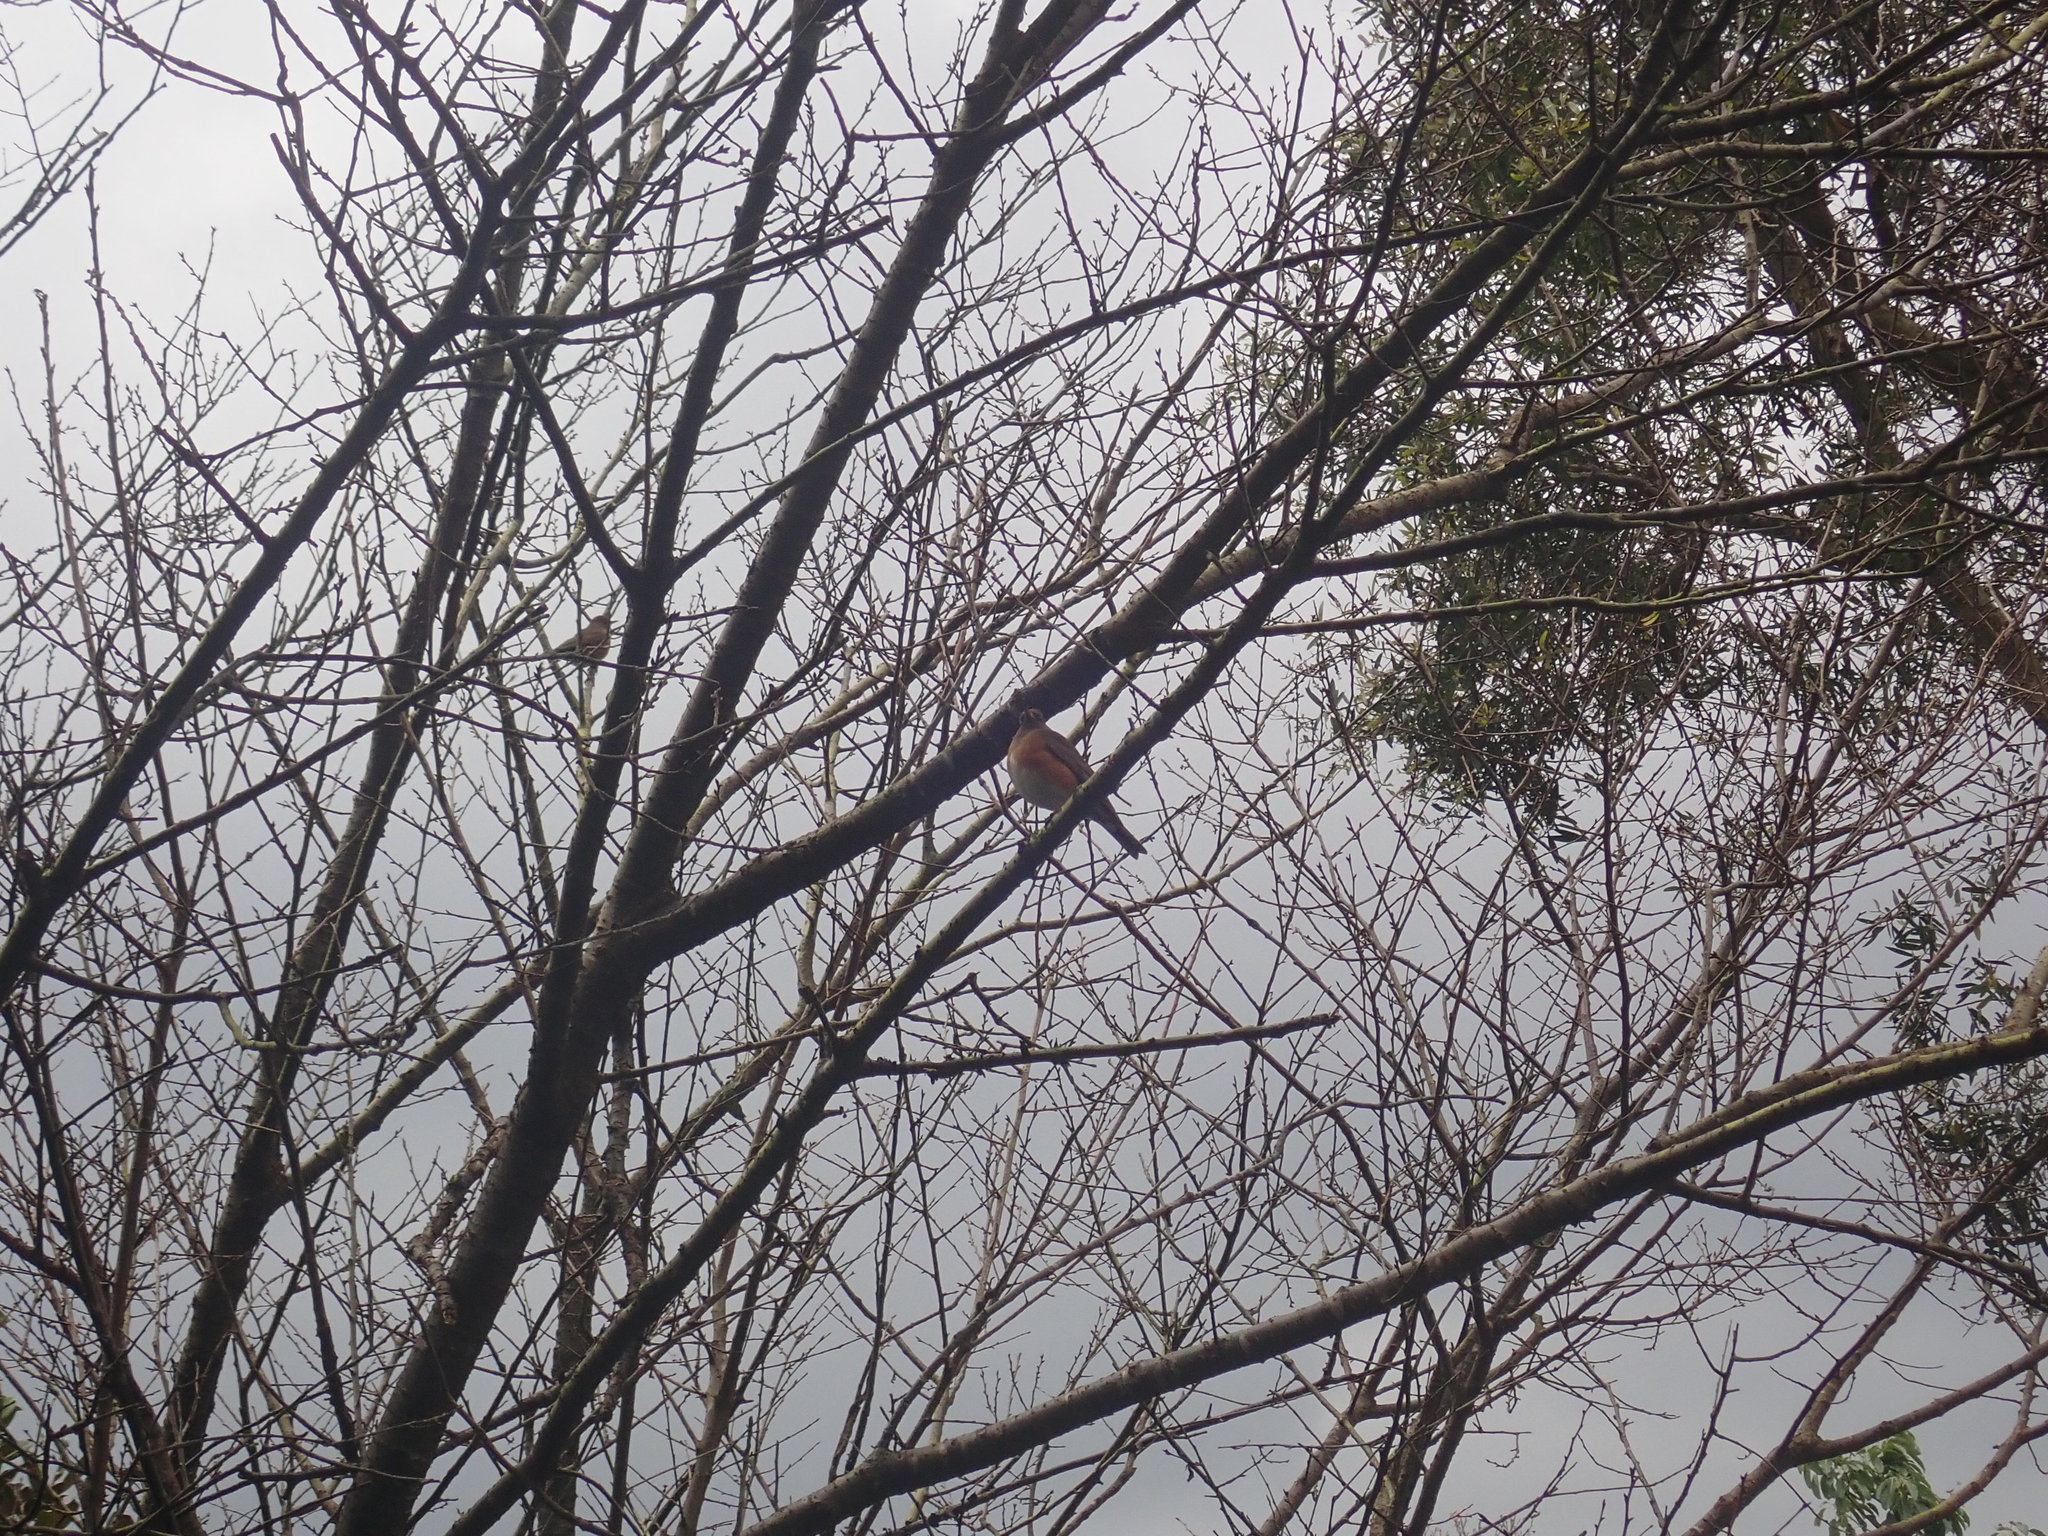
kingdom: Animalia
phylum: Chordata
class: Aves
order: Passeriformes
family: Turdidae
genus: Turdus
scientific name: Turdus chrysolaus
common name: Brown-headed thrush
